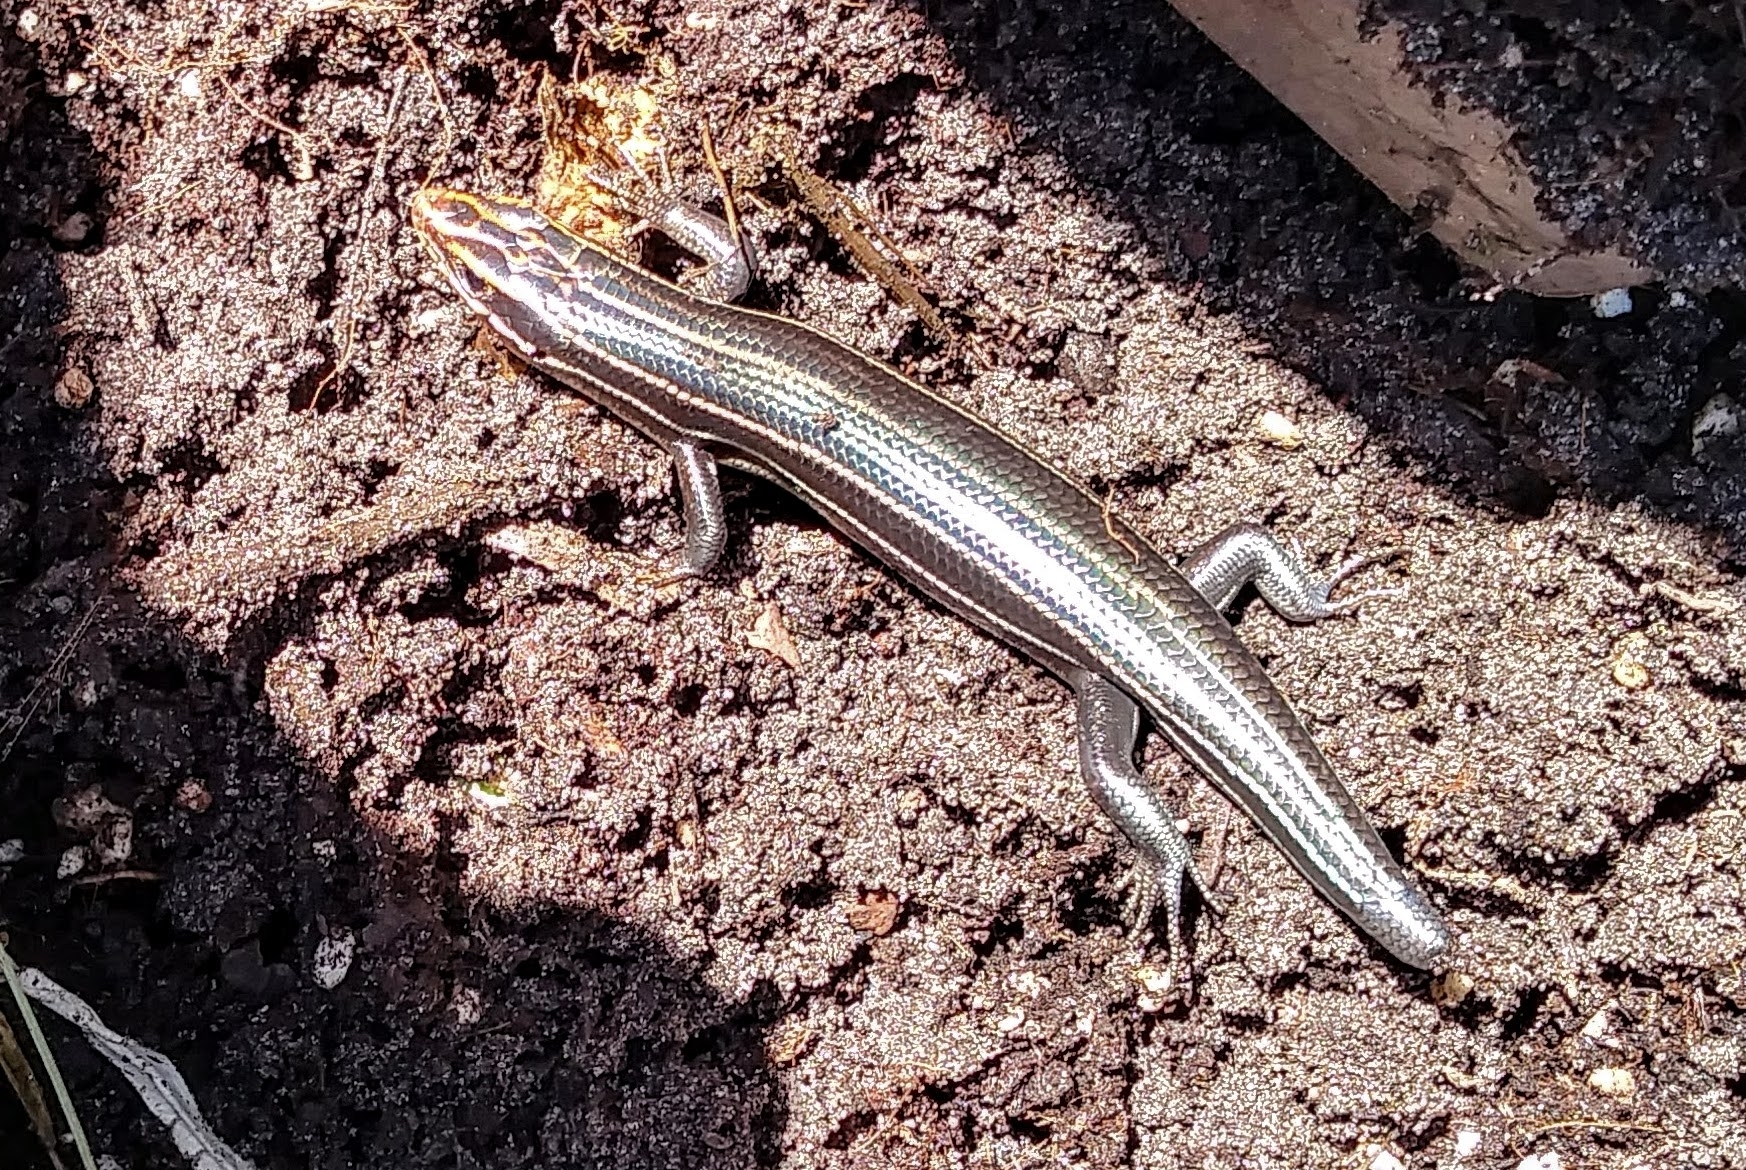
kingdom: Animalia
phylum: Chordata
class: Squamata
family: Scincidae
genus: Plestiodon
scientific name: Plestiodon inexpectatus
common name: Southeastern five-lined skink
